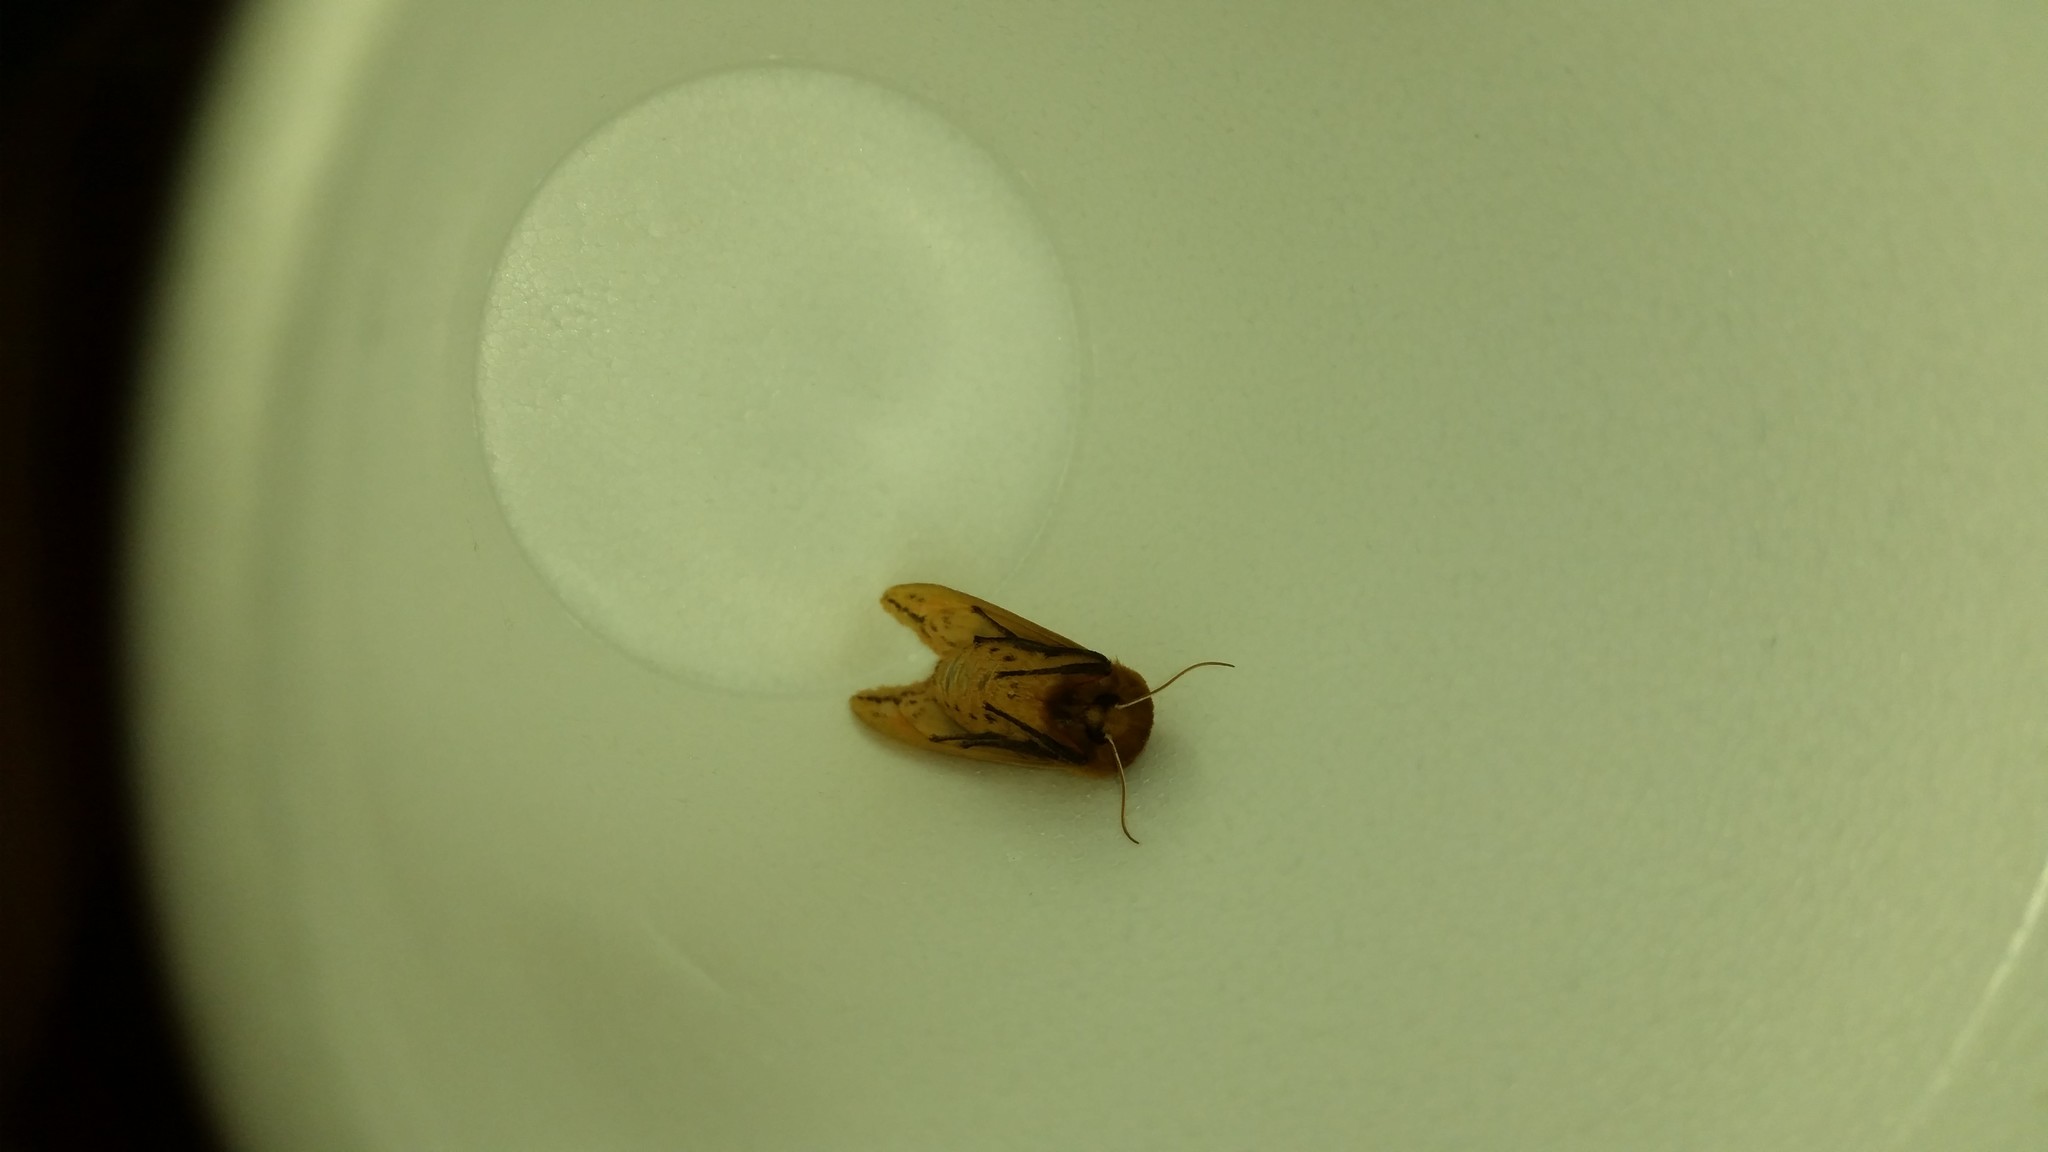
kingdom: Animalia
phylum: Arthropoda
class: Insecta
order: Lepidoptera
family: Erebidae
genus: Pyrrharctia
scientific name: Pyrrharctia isabella
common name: Isabella tiger moth
